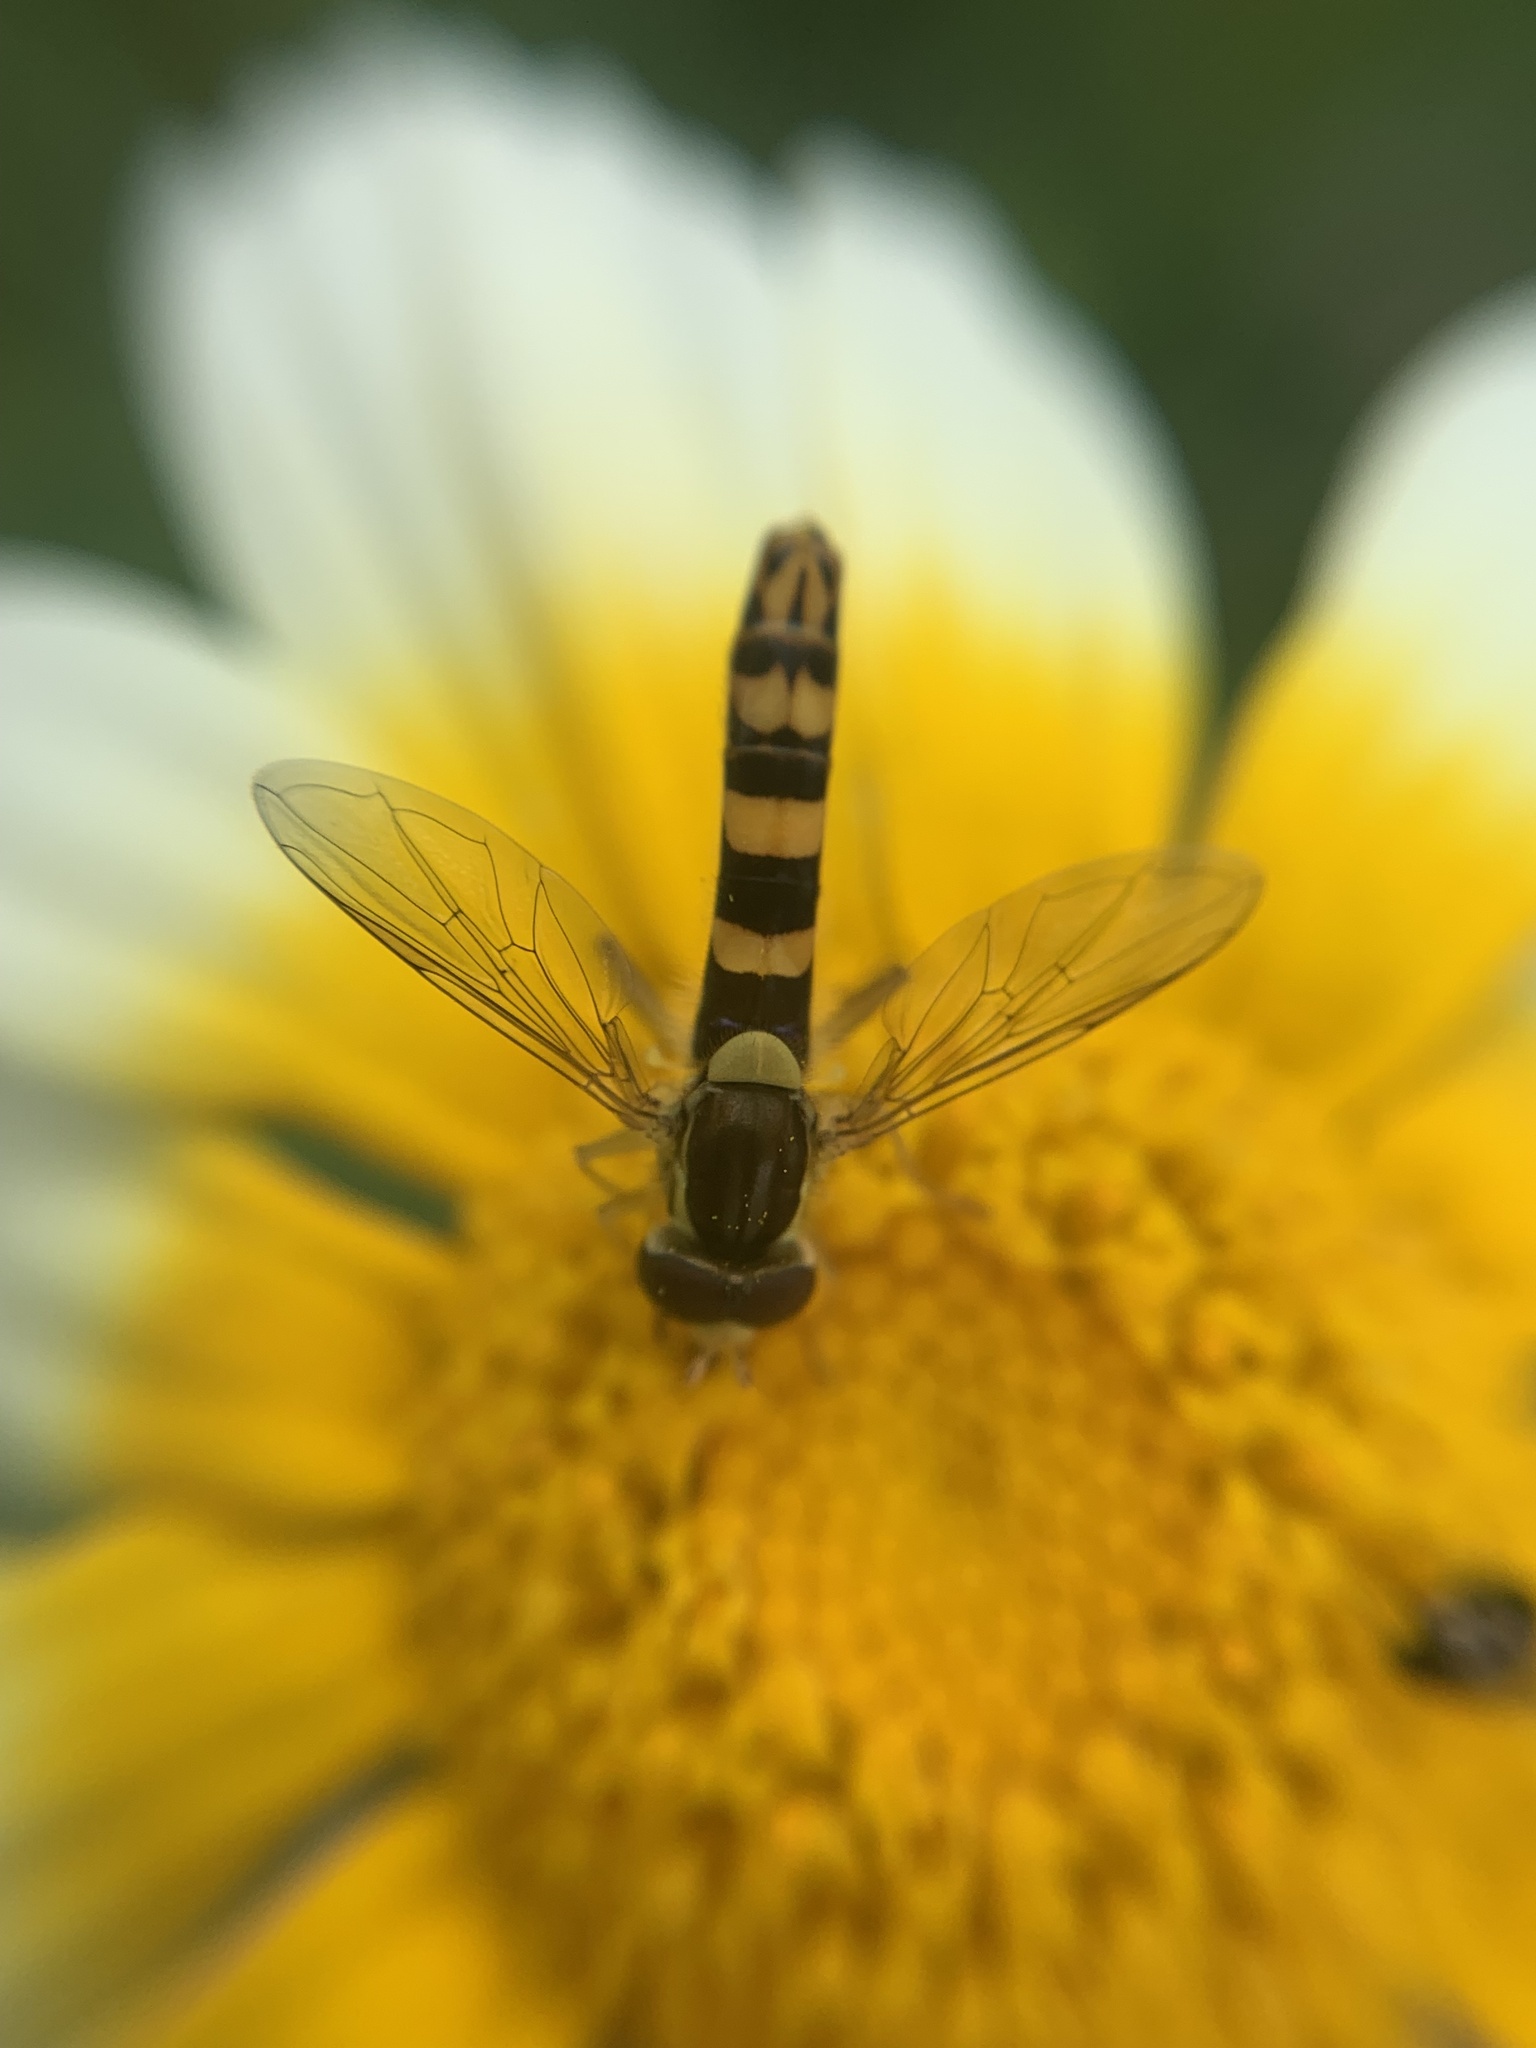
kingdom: Animalia
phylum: Arthropoda
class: Insecta
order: Diptera
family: Syrphidae
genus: Sphaerophoria
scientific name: Sphaerophoria scripta
